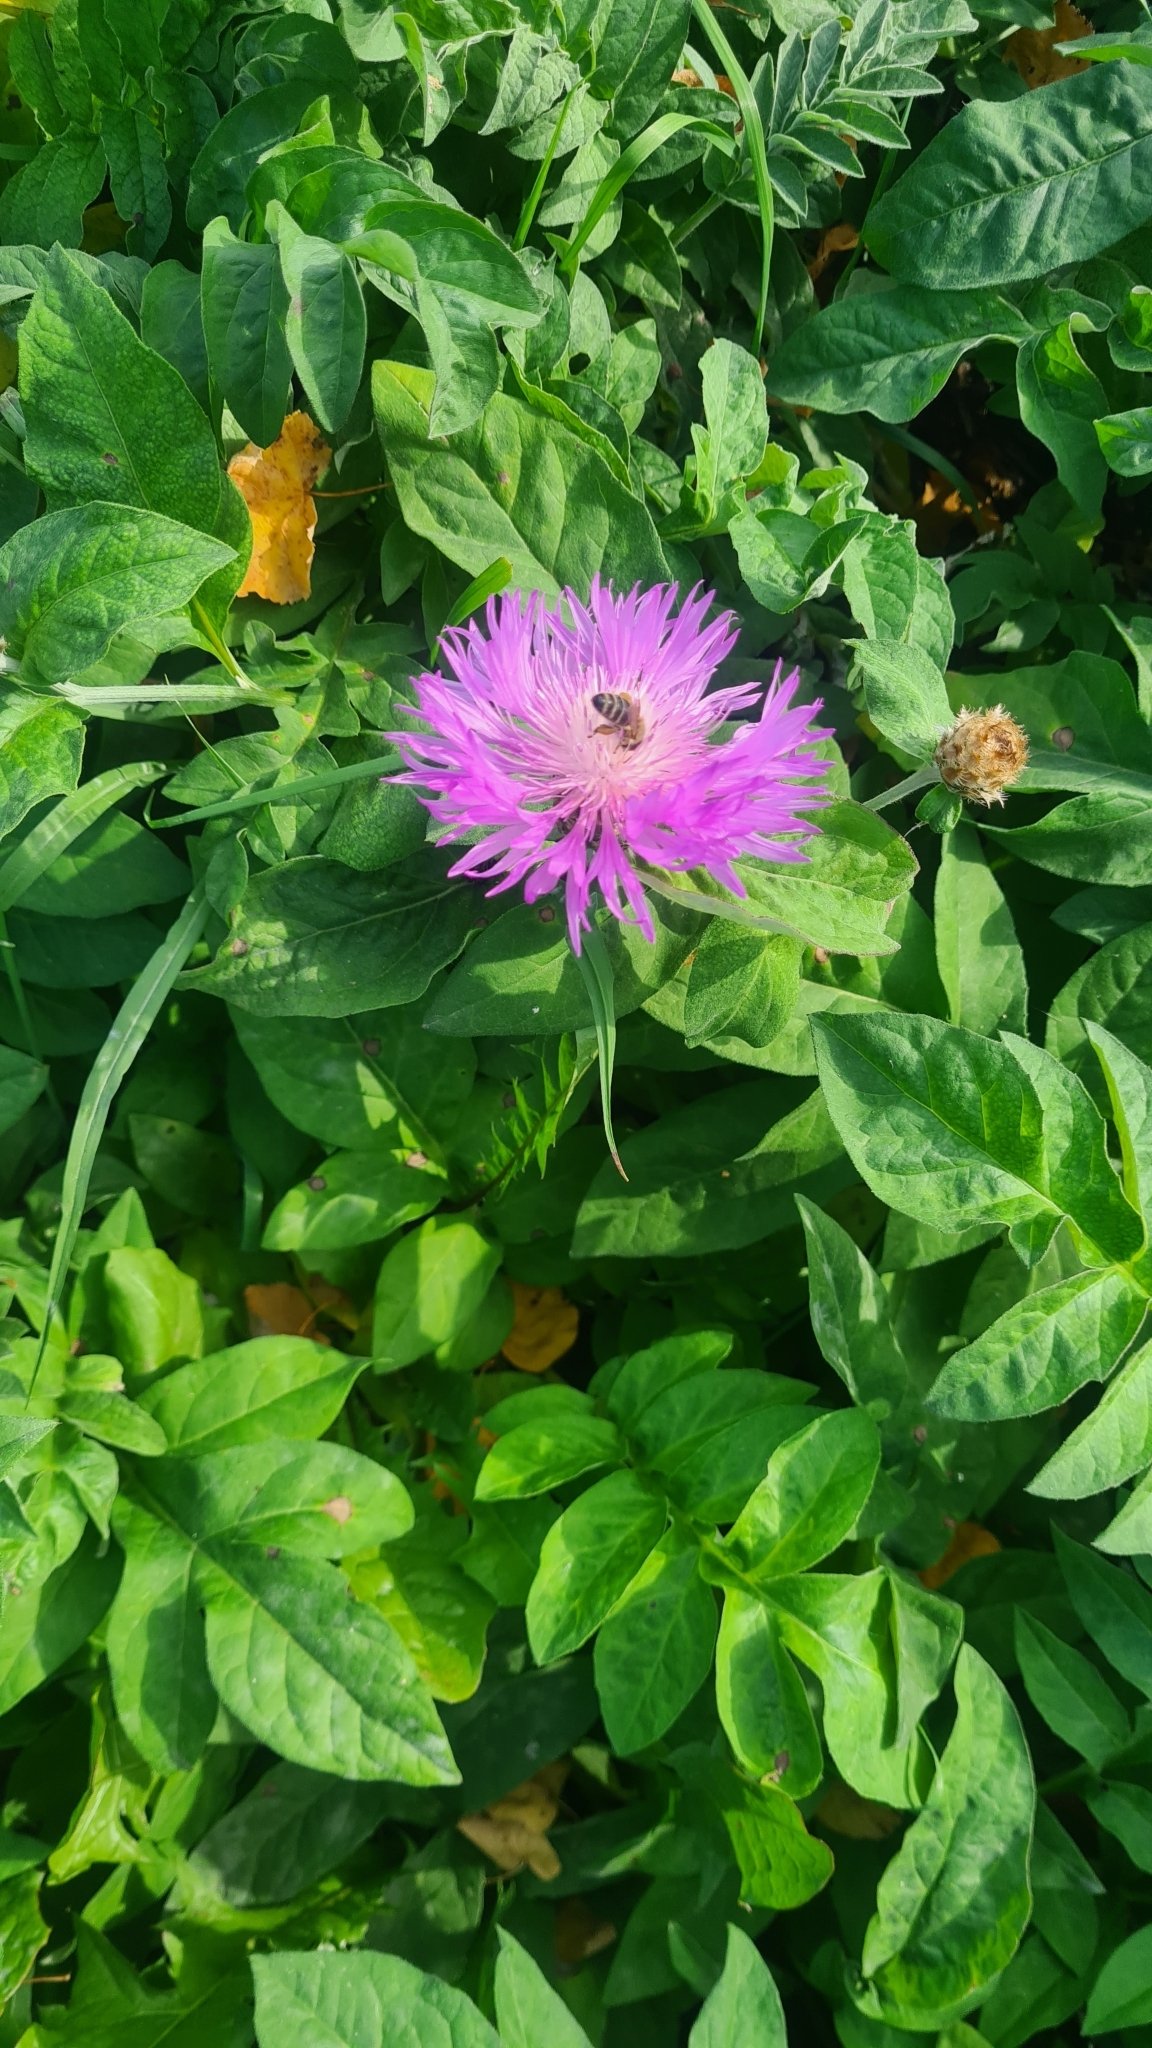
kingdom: Animalia
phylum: Arthropoda
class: Insecta
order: Hymenoptera
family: Apidae
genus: Apis
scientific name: Apis mellifera
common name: Honey bee
